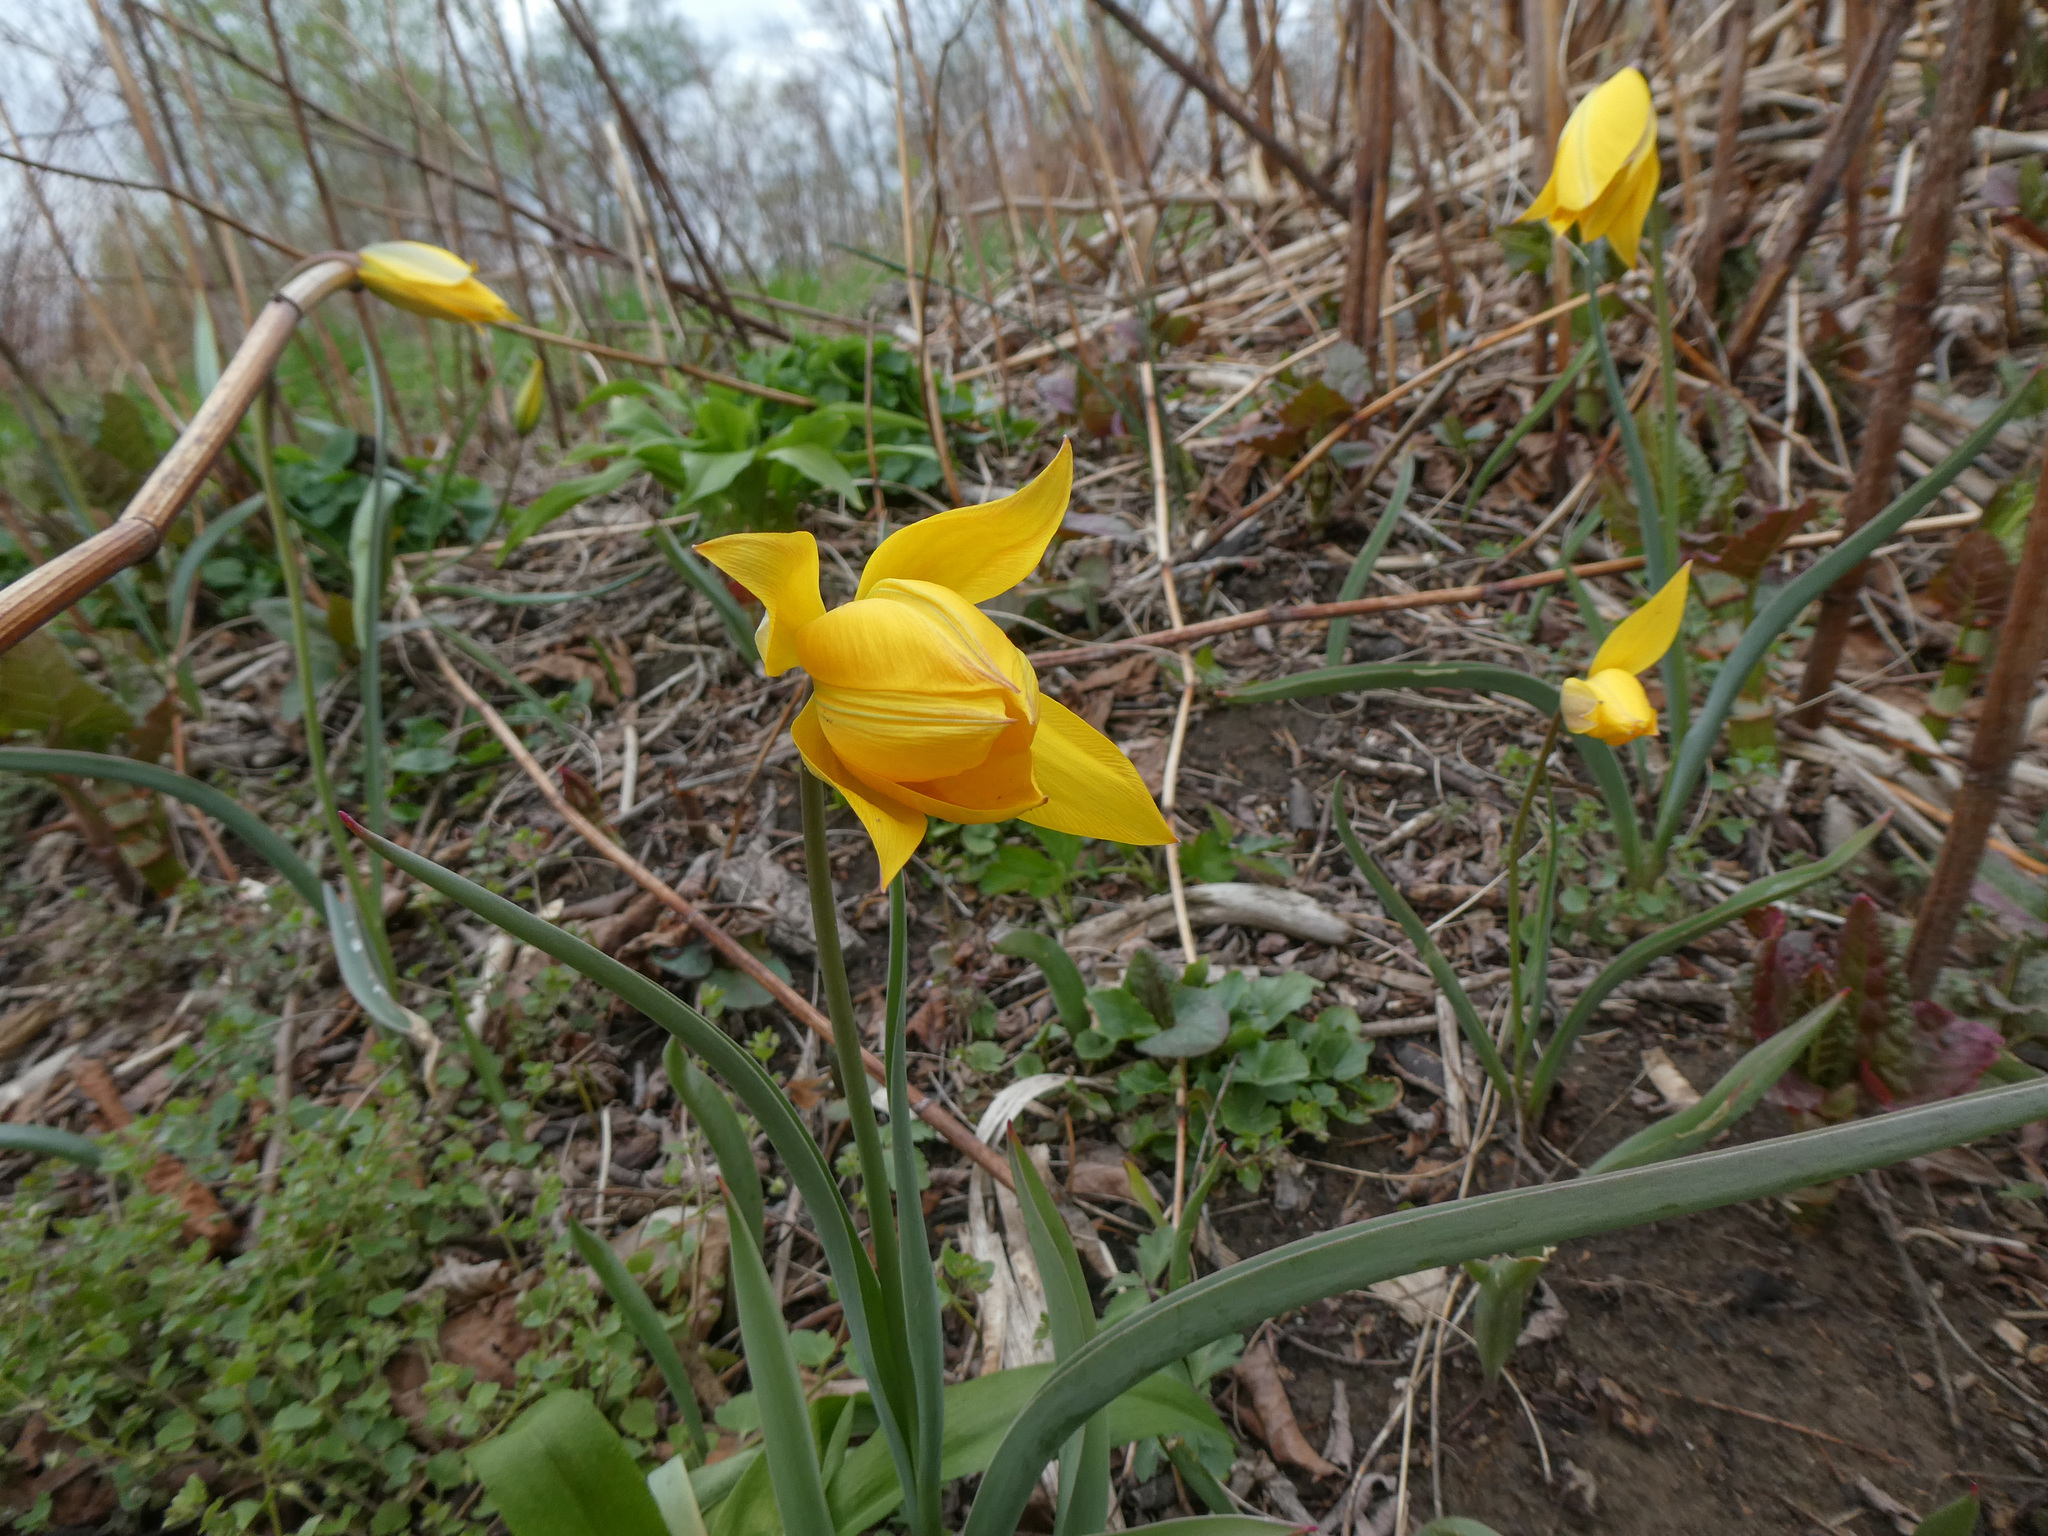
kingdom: Plantae
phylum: Tracheophyta
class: Liliopsida
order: Liliales
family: Liliaceae
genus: Tulipa
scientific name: Tulipa sylvestris
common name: Wild tulip
